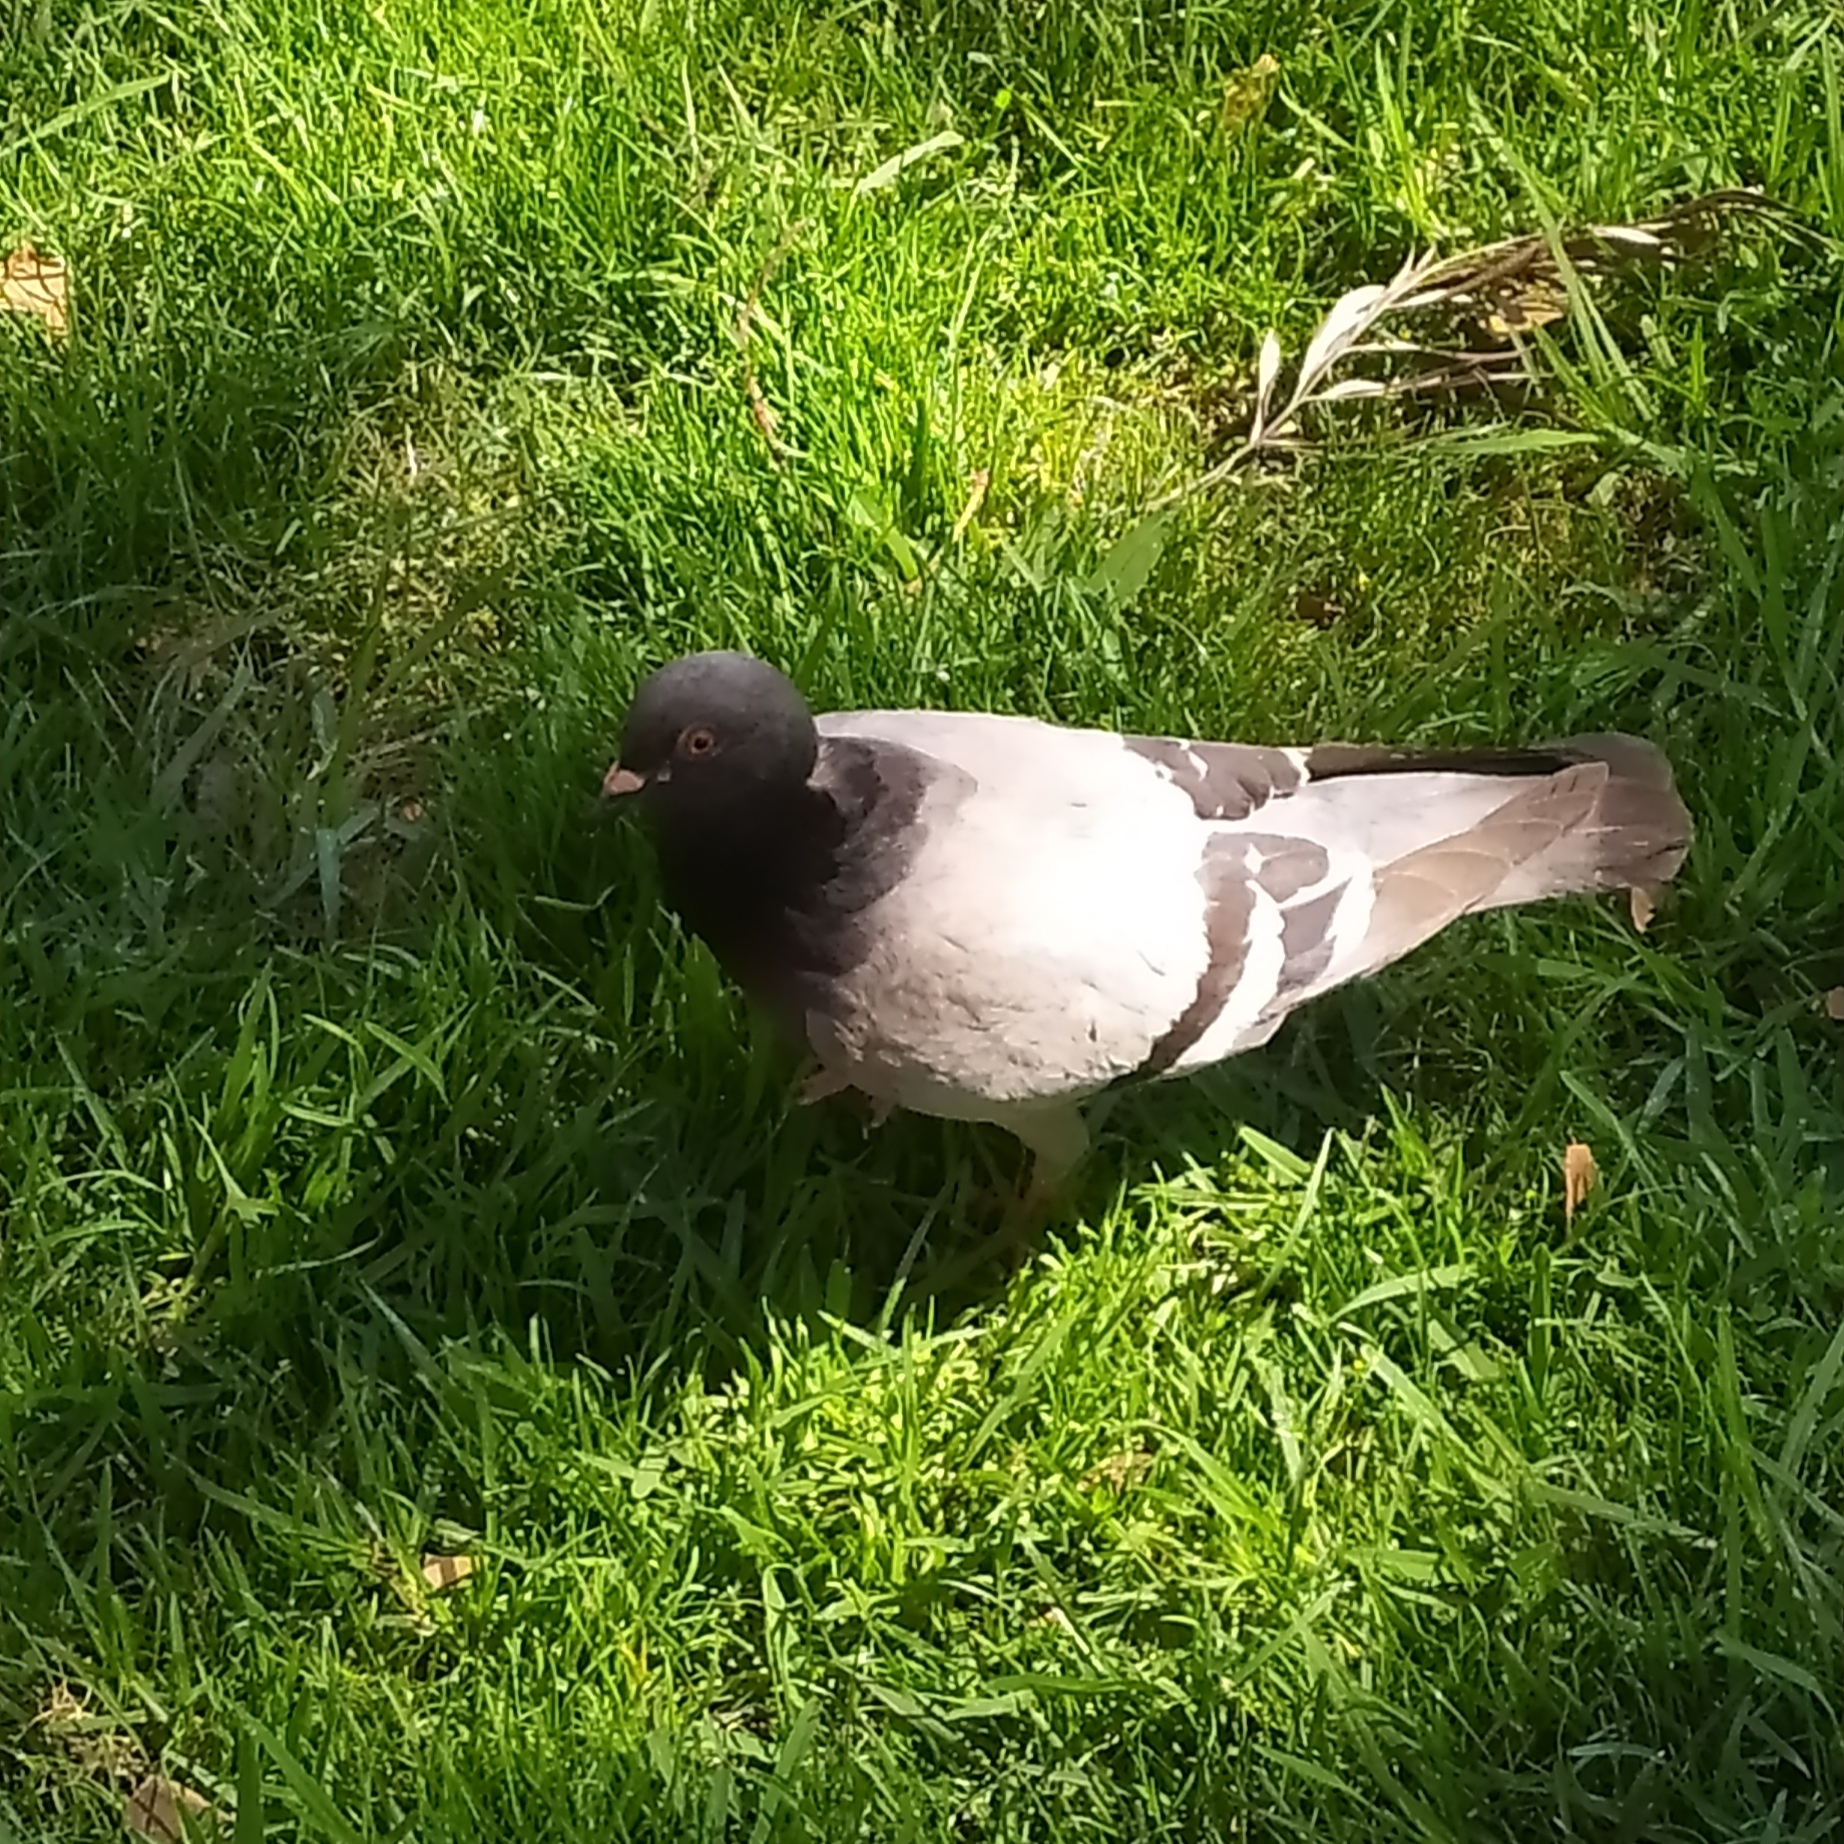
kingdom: Animalia
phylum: Chordata
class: Aves
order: Columbiformes
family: Columbidae
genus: Columba
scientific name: Columba livia
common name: Rock pigeon
